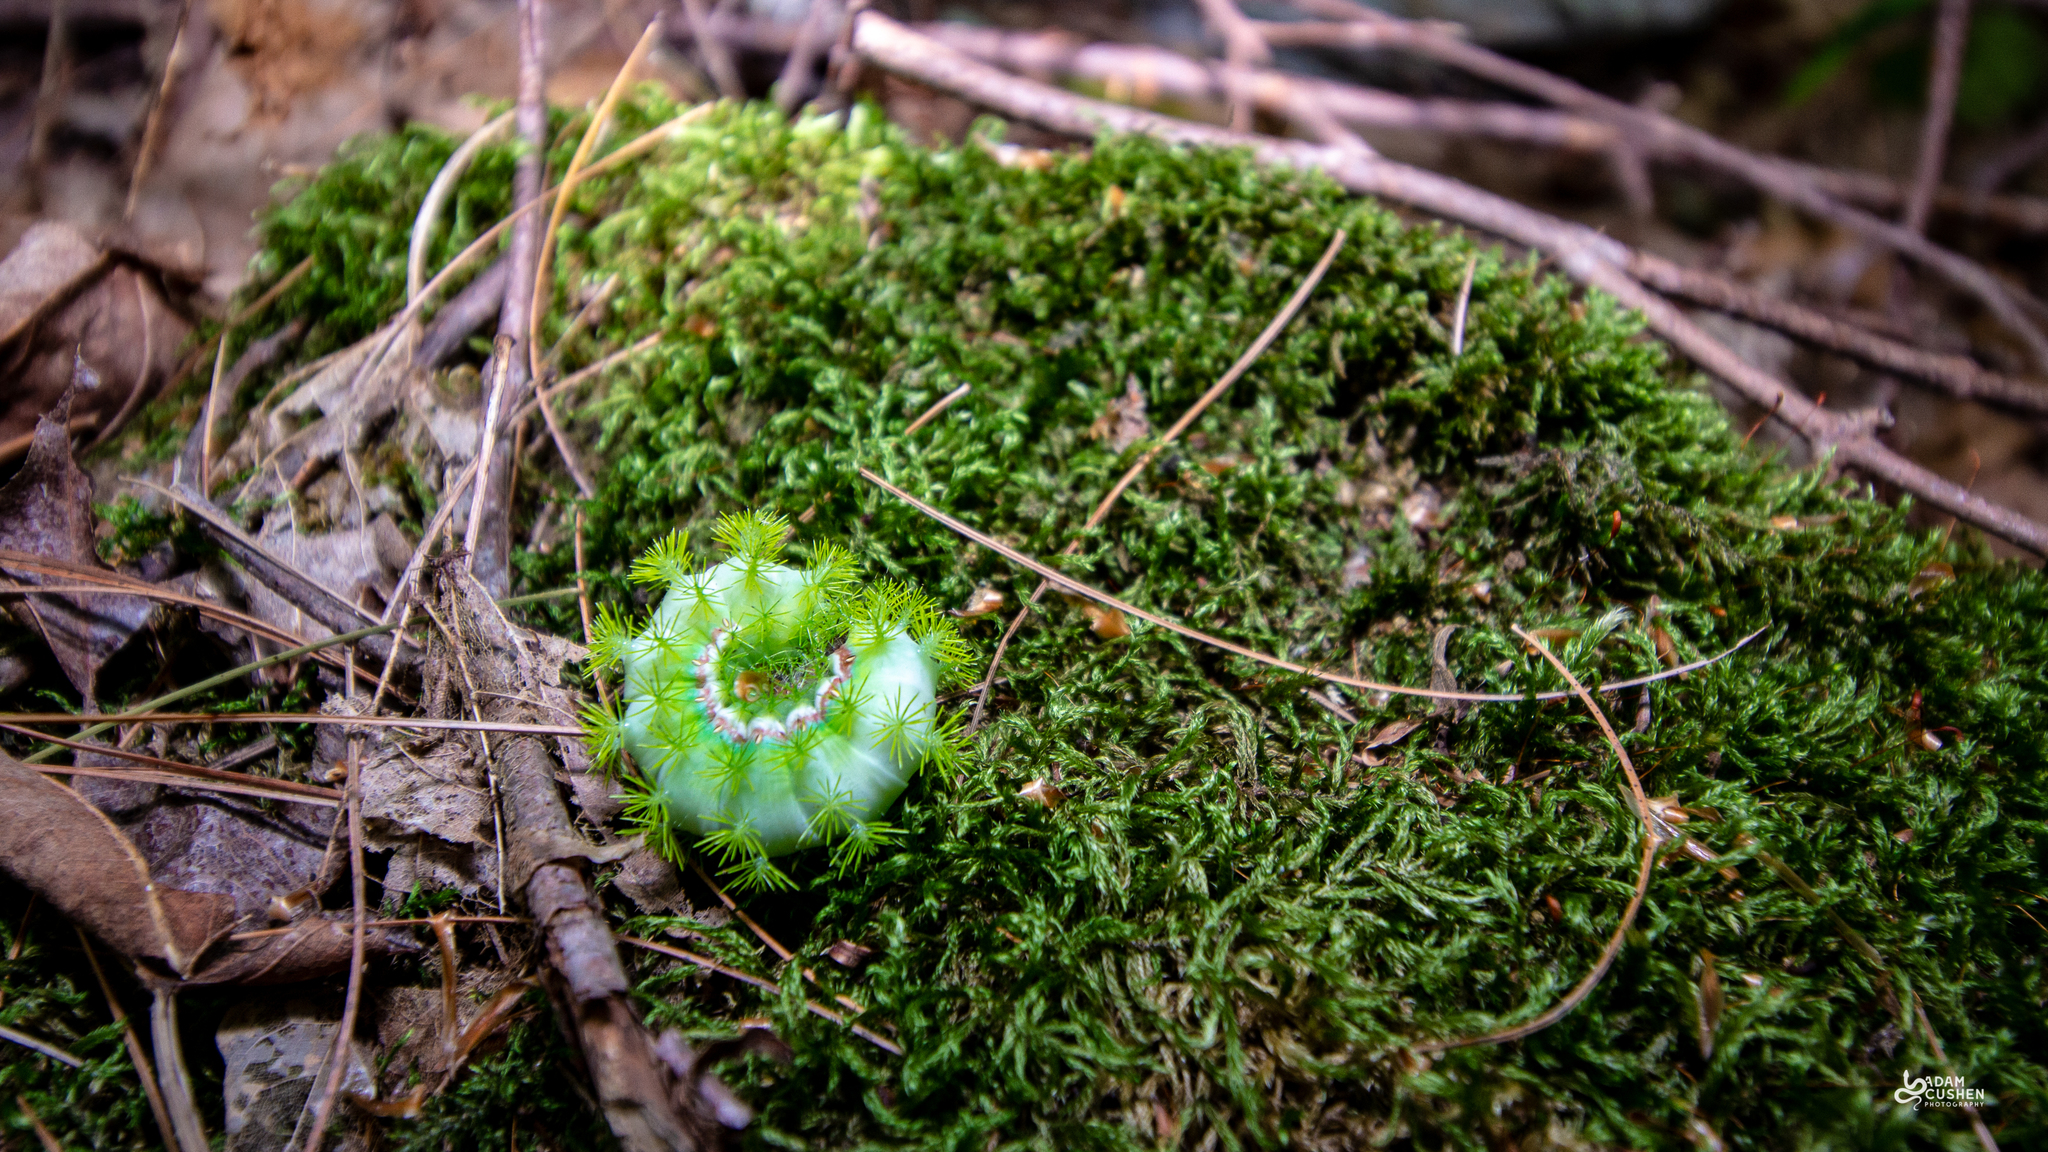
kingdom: Animalia
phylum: Arthropoda
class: Insecta
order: Lepidoptera
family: Saturniidae
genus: Automeris
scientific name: Automeris io
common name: Io moth
